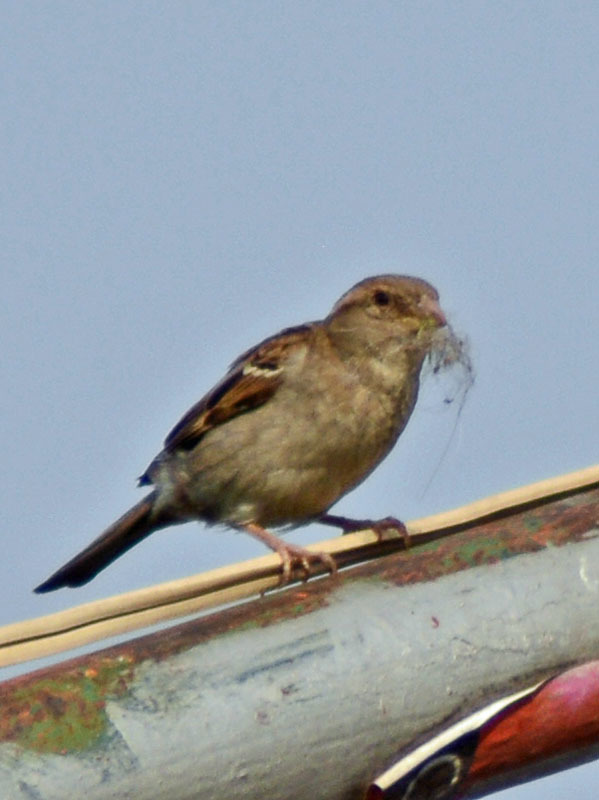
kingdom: Animalia
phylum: Chordata
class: Aves
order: Passeriformes
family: Passeridae
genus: Passer
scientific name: Passer domesticus
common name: House sparrow
